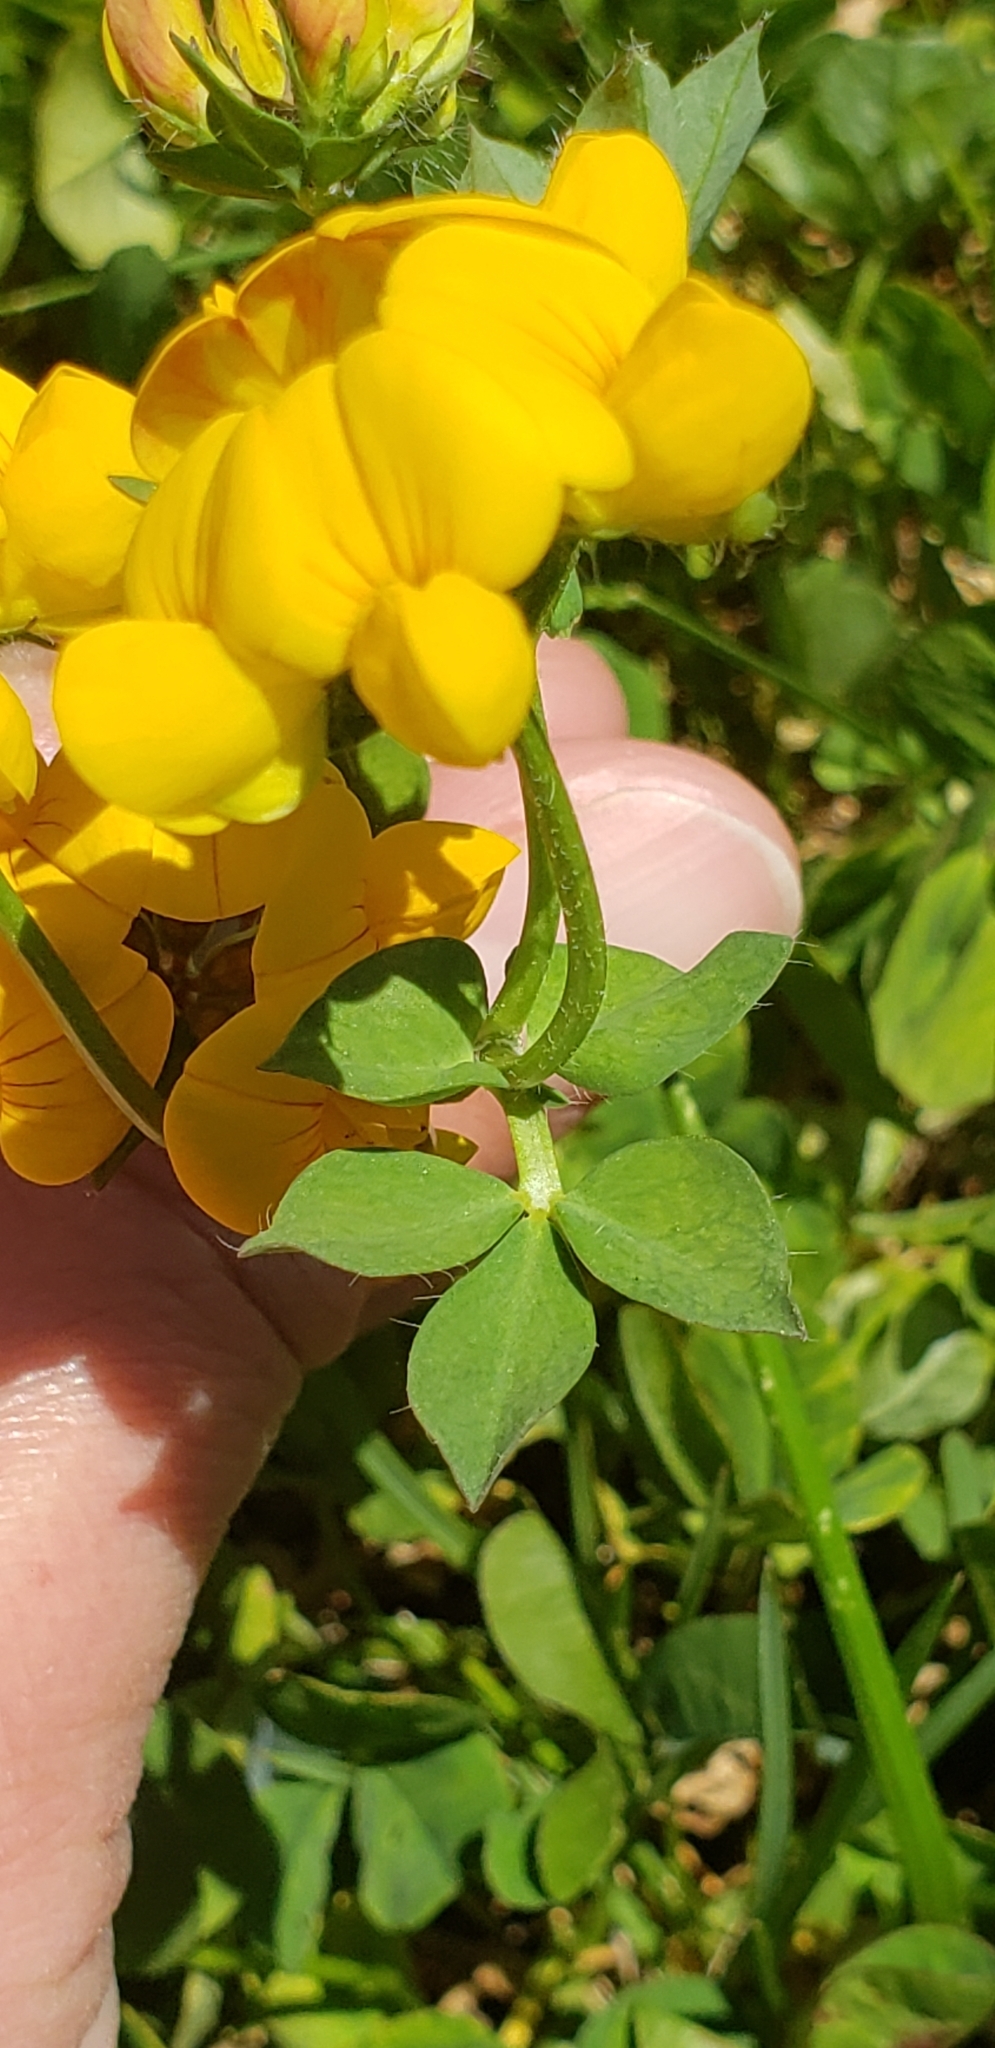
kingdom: Plantae
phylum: Tracheophyta
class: Magnoliopsida
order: Fabales
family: Fabaceae
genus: Lotus
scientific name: Lotus corniculatus
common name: Common bird's-foot-trefoil
